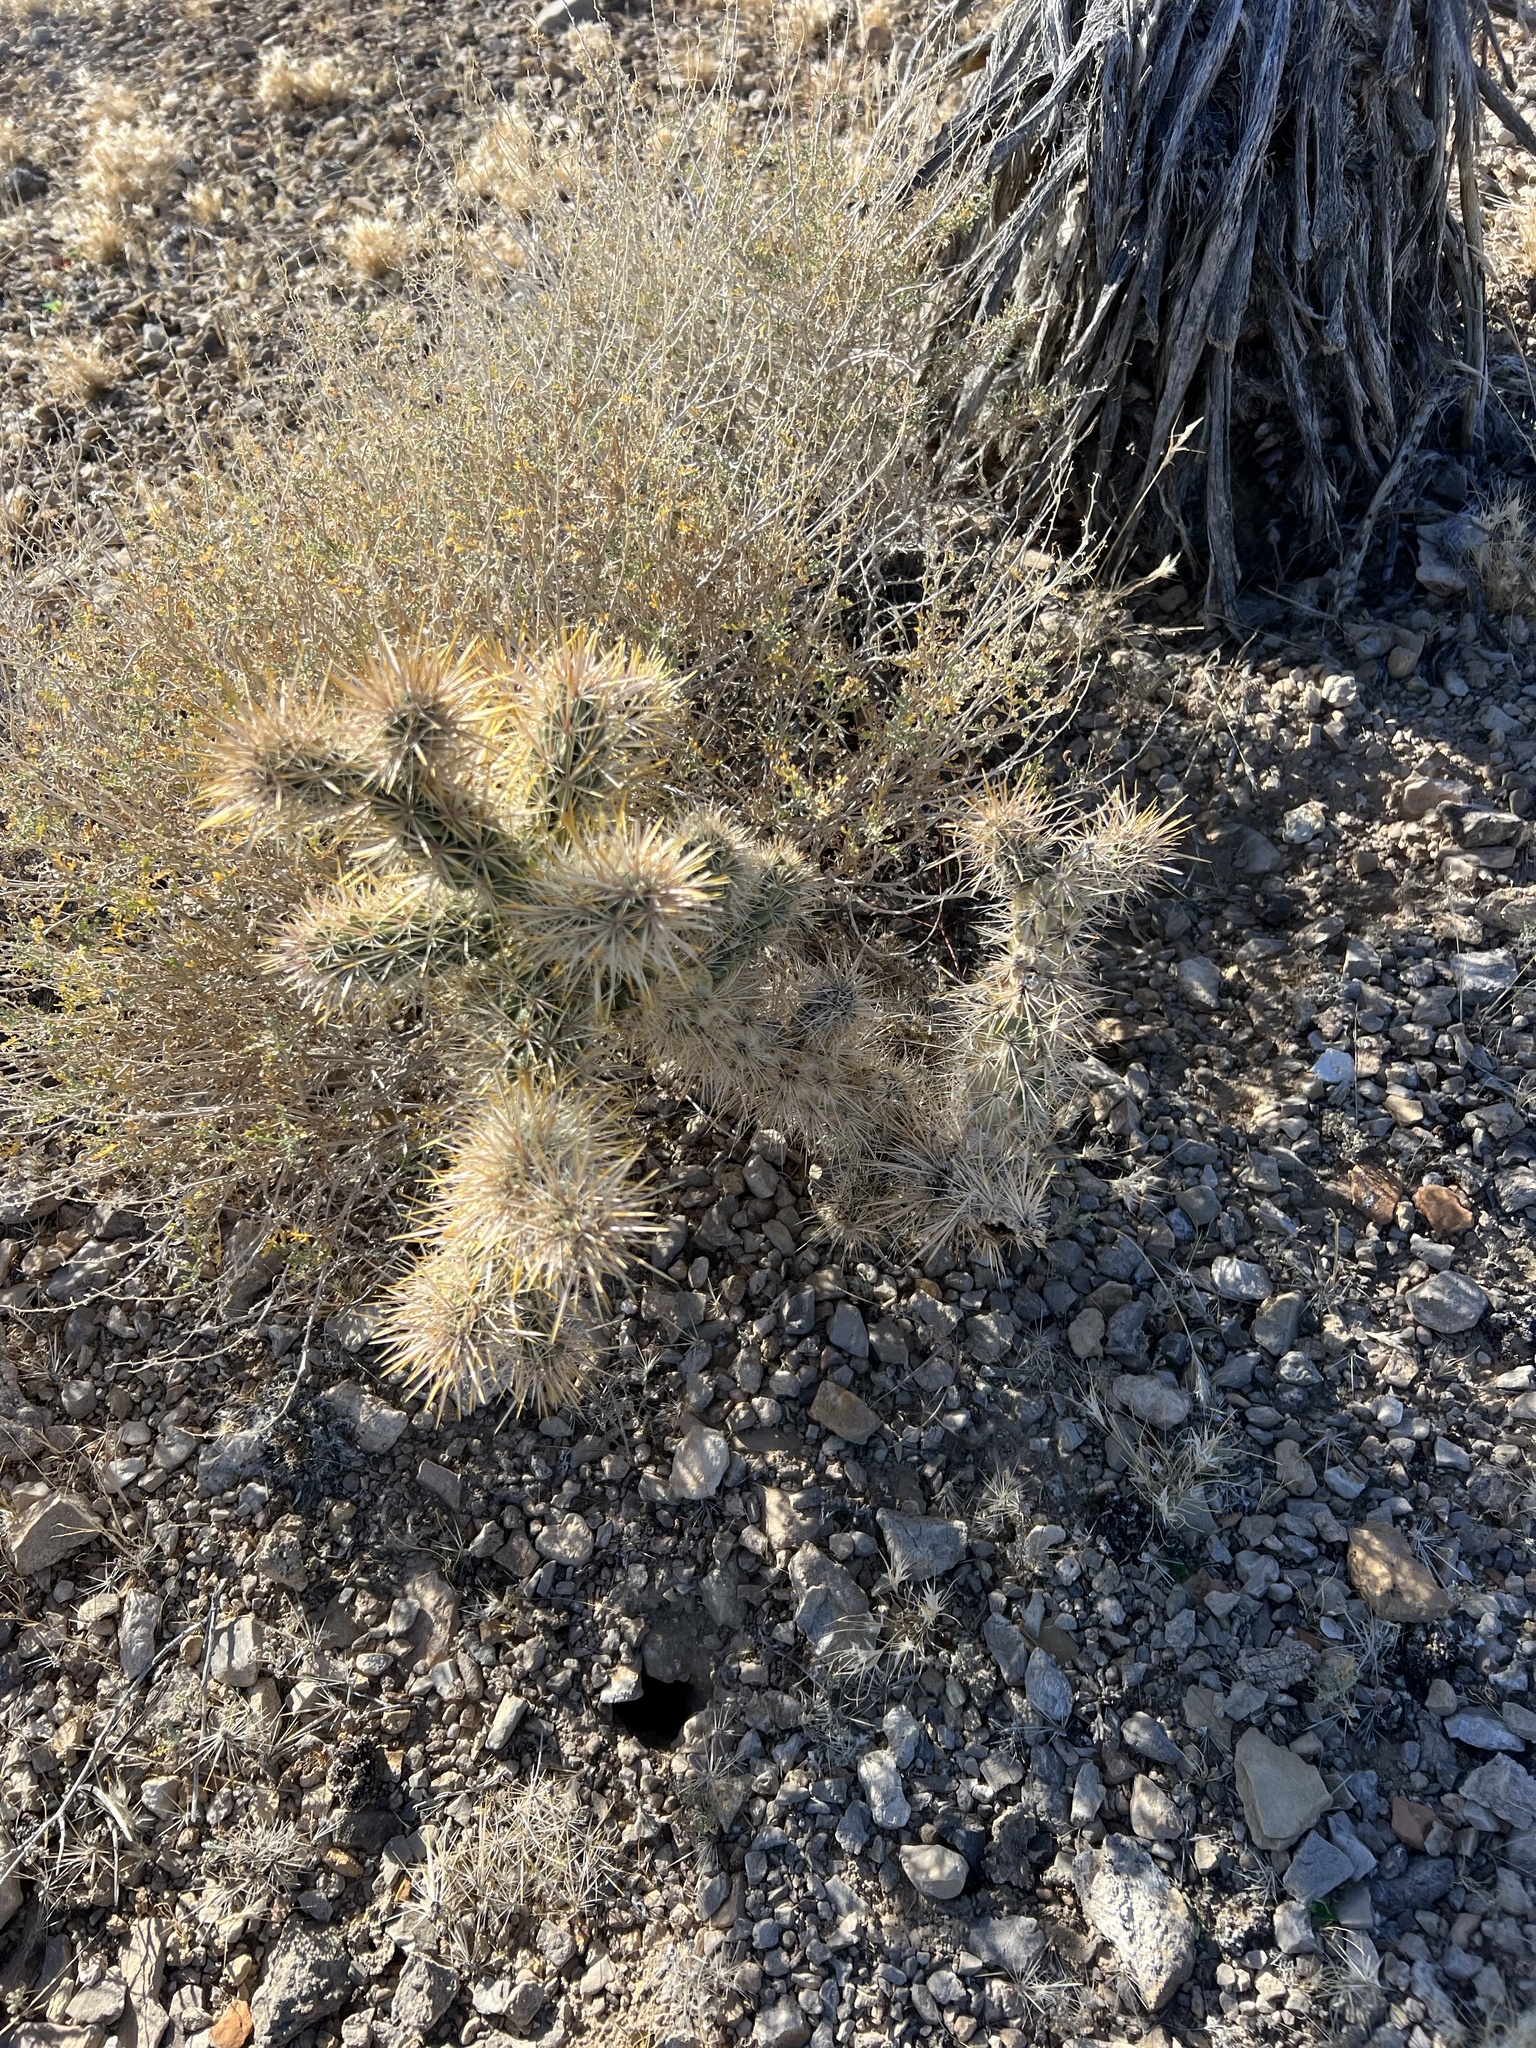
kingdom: Plantae
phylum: Tracheophyta
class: Magnoliopsida
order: Caryophyllales
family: Cactaceae
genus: Cylindropuntia
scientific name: Cylindropuntia echinocarpa
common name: Ground cholla
